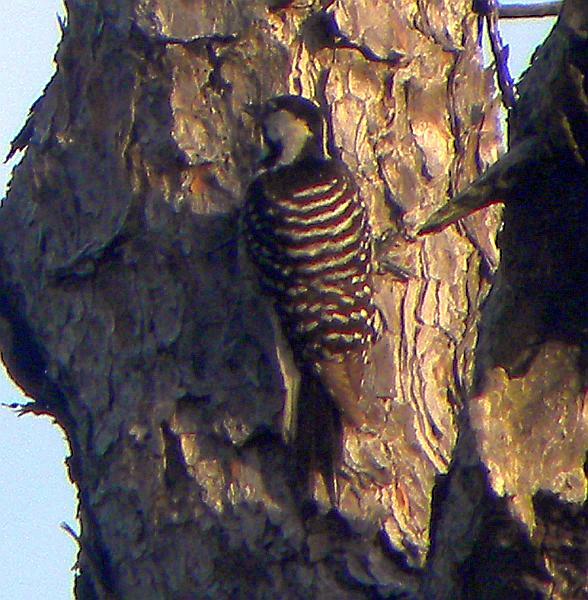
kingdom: Animalia
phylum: Chordata
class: Aves
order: Piciformes
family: Picidae
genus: Leuconotopicus
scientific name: Leuconotopicus borealis
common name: Red-cockaded woodpecker
